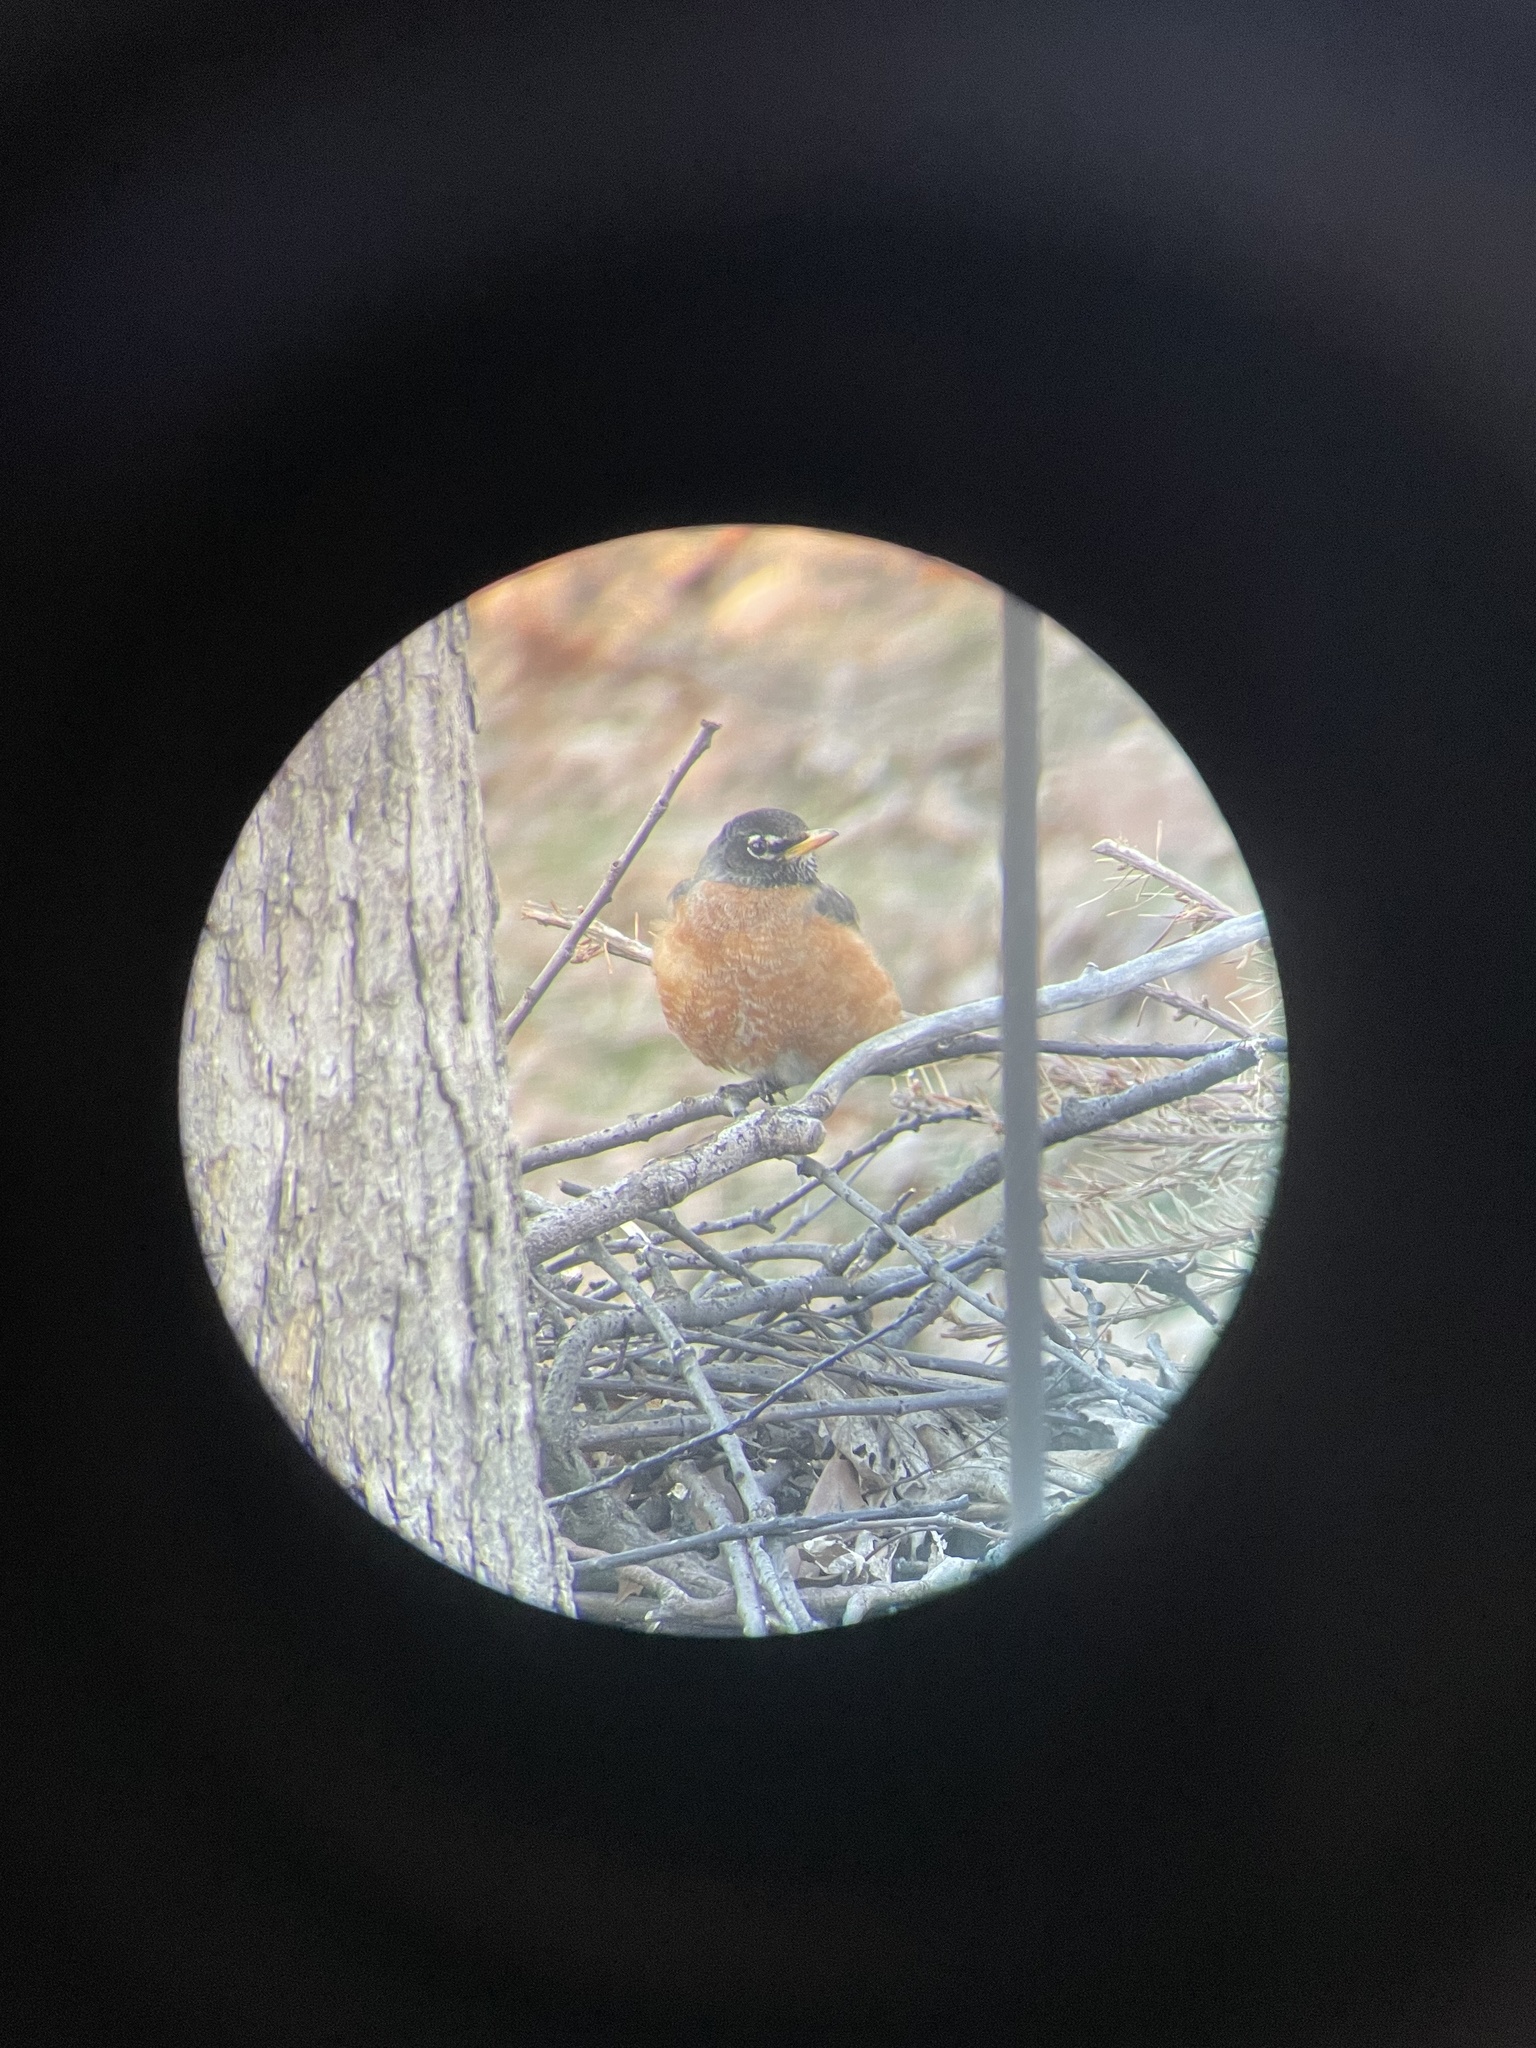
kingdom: Animalia
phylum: Chordata
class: Aves
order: Passeriformes
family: Turdidae
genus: Turdus
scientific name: Turdus migratorius
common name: American robin
